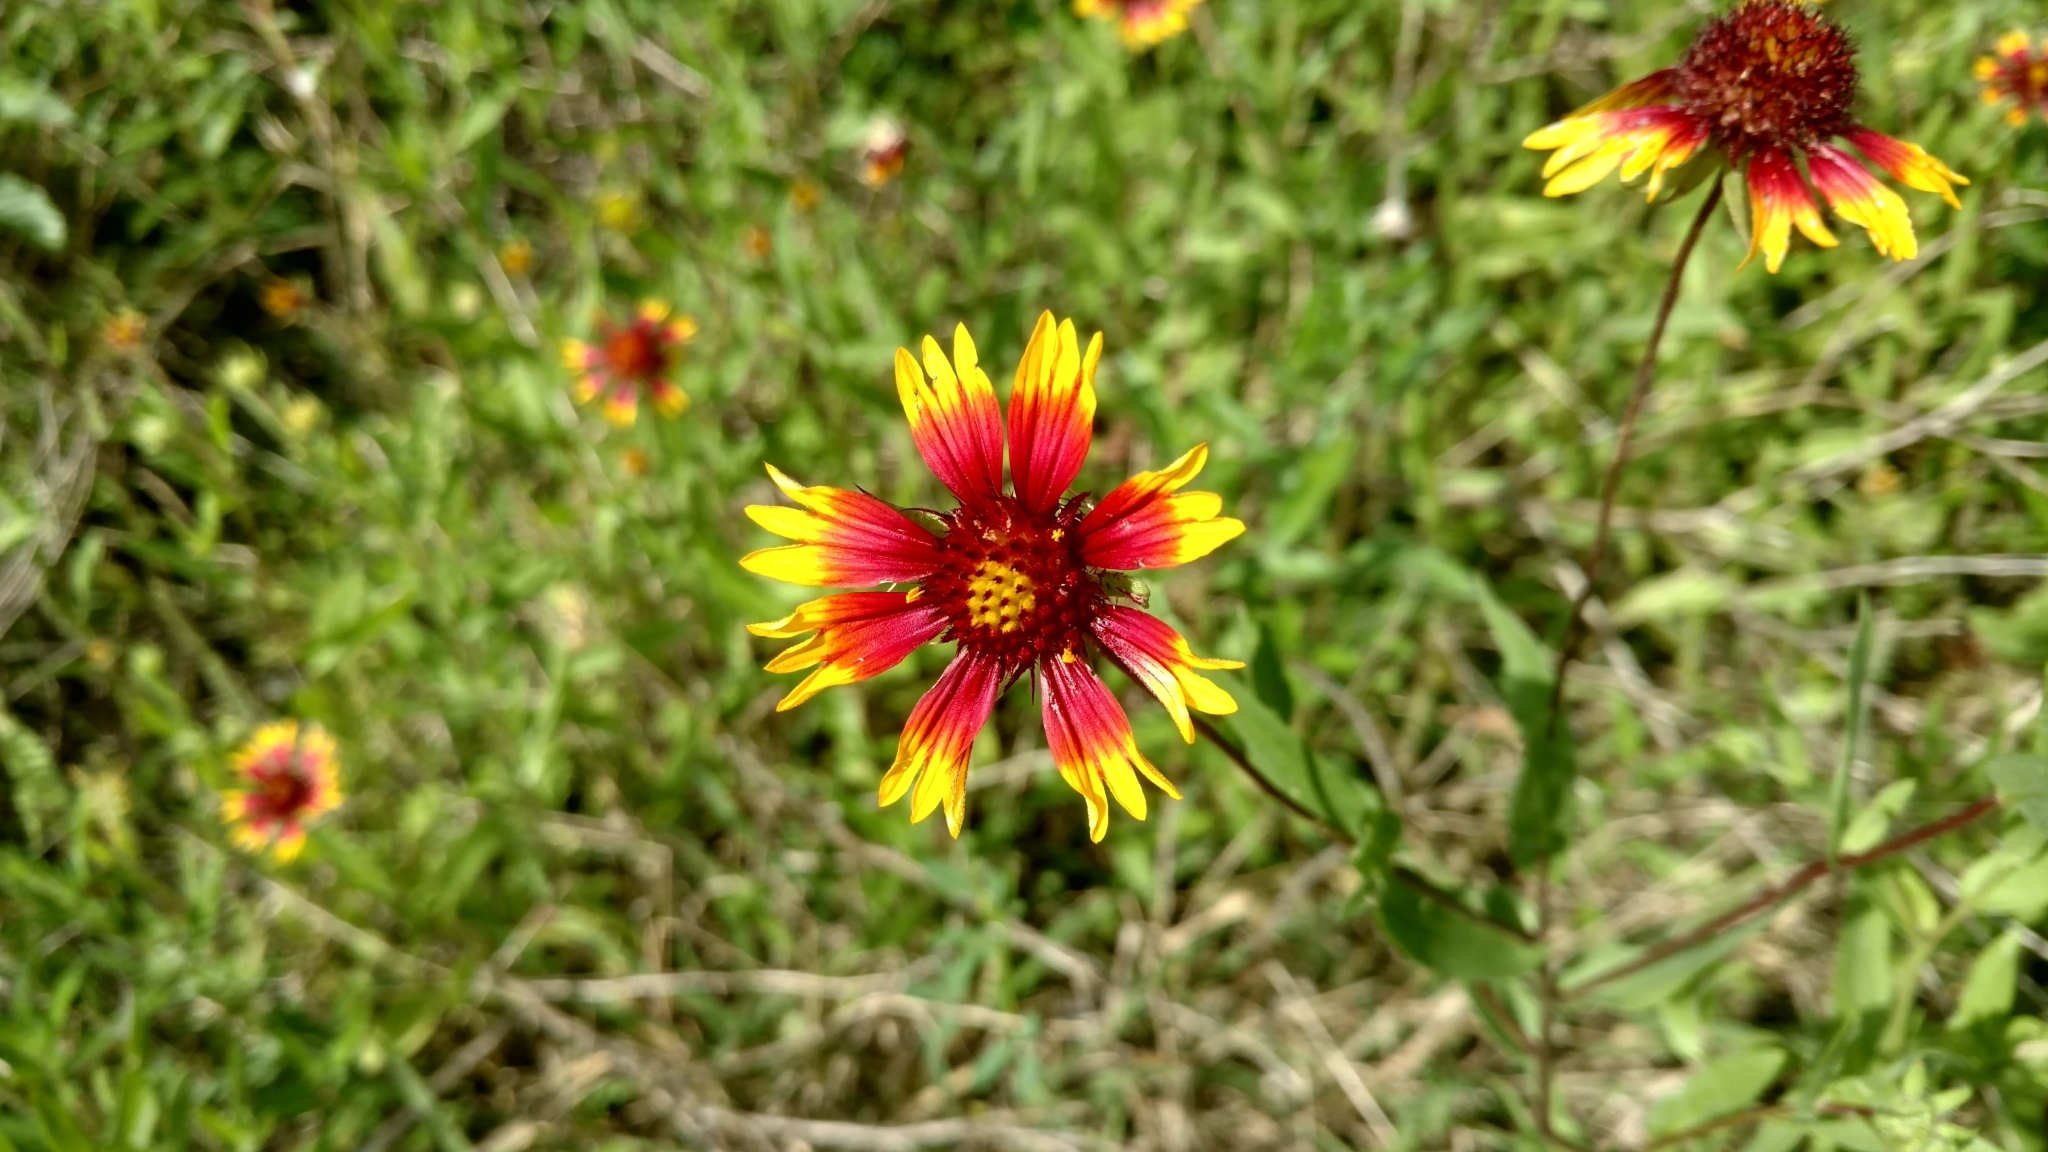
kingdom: Plantae
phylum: Tracheophyta
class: Magnoliopsida
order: Asterales
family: Asteraceae
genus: Gaillardia
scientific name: Gaillardia pulchella
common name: Firewheel
